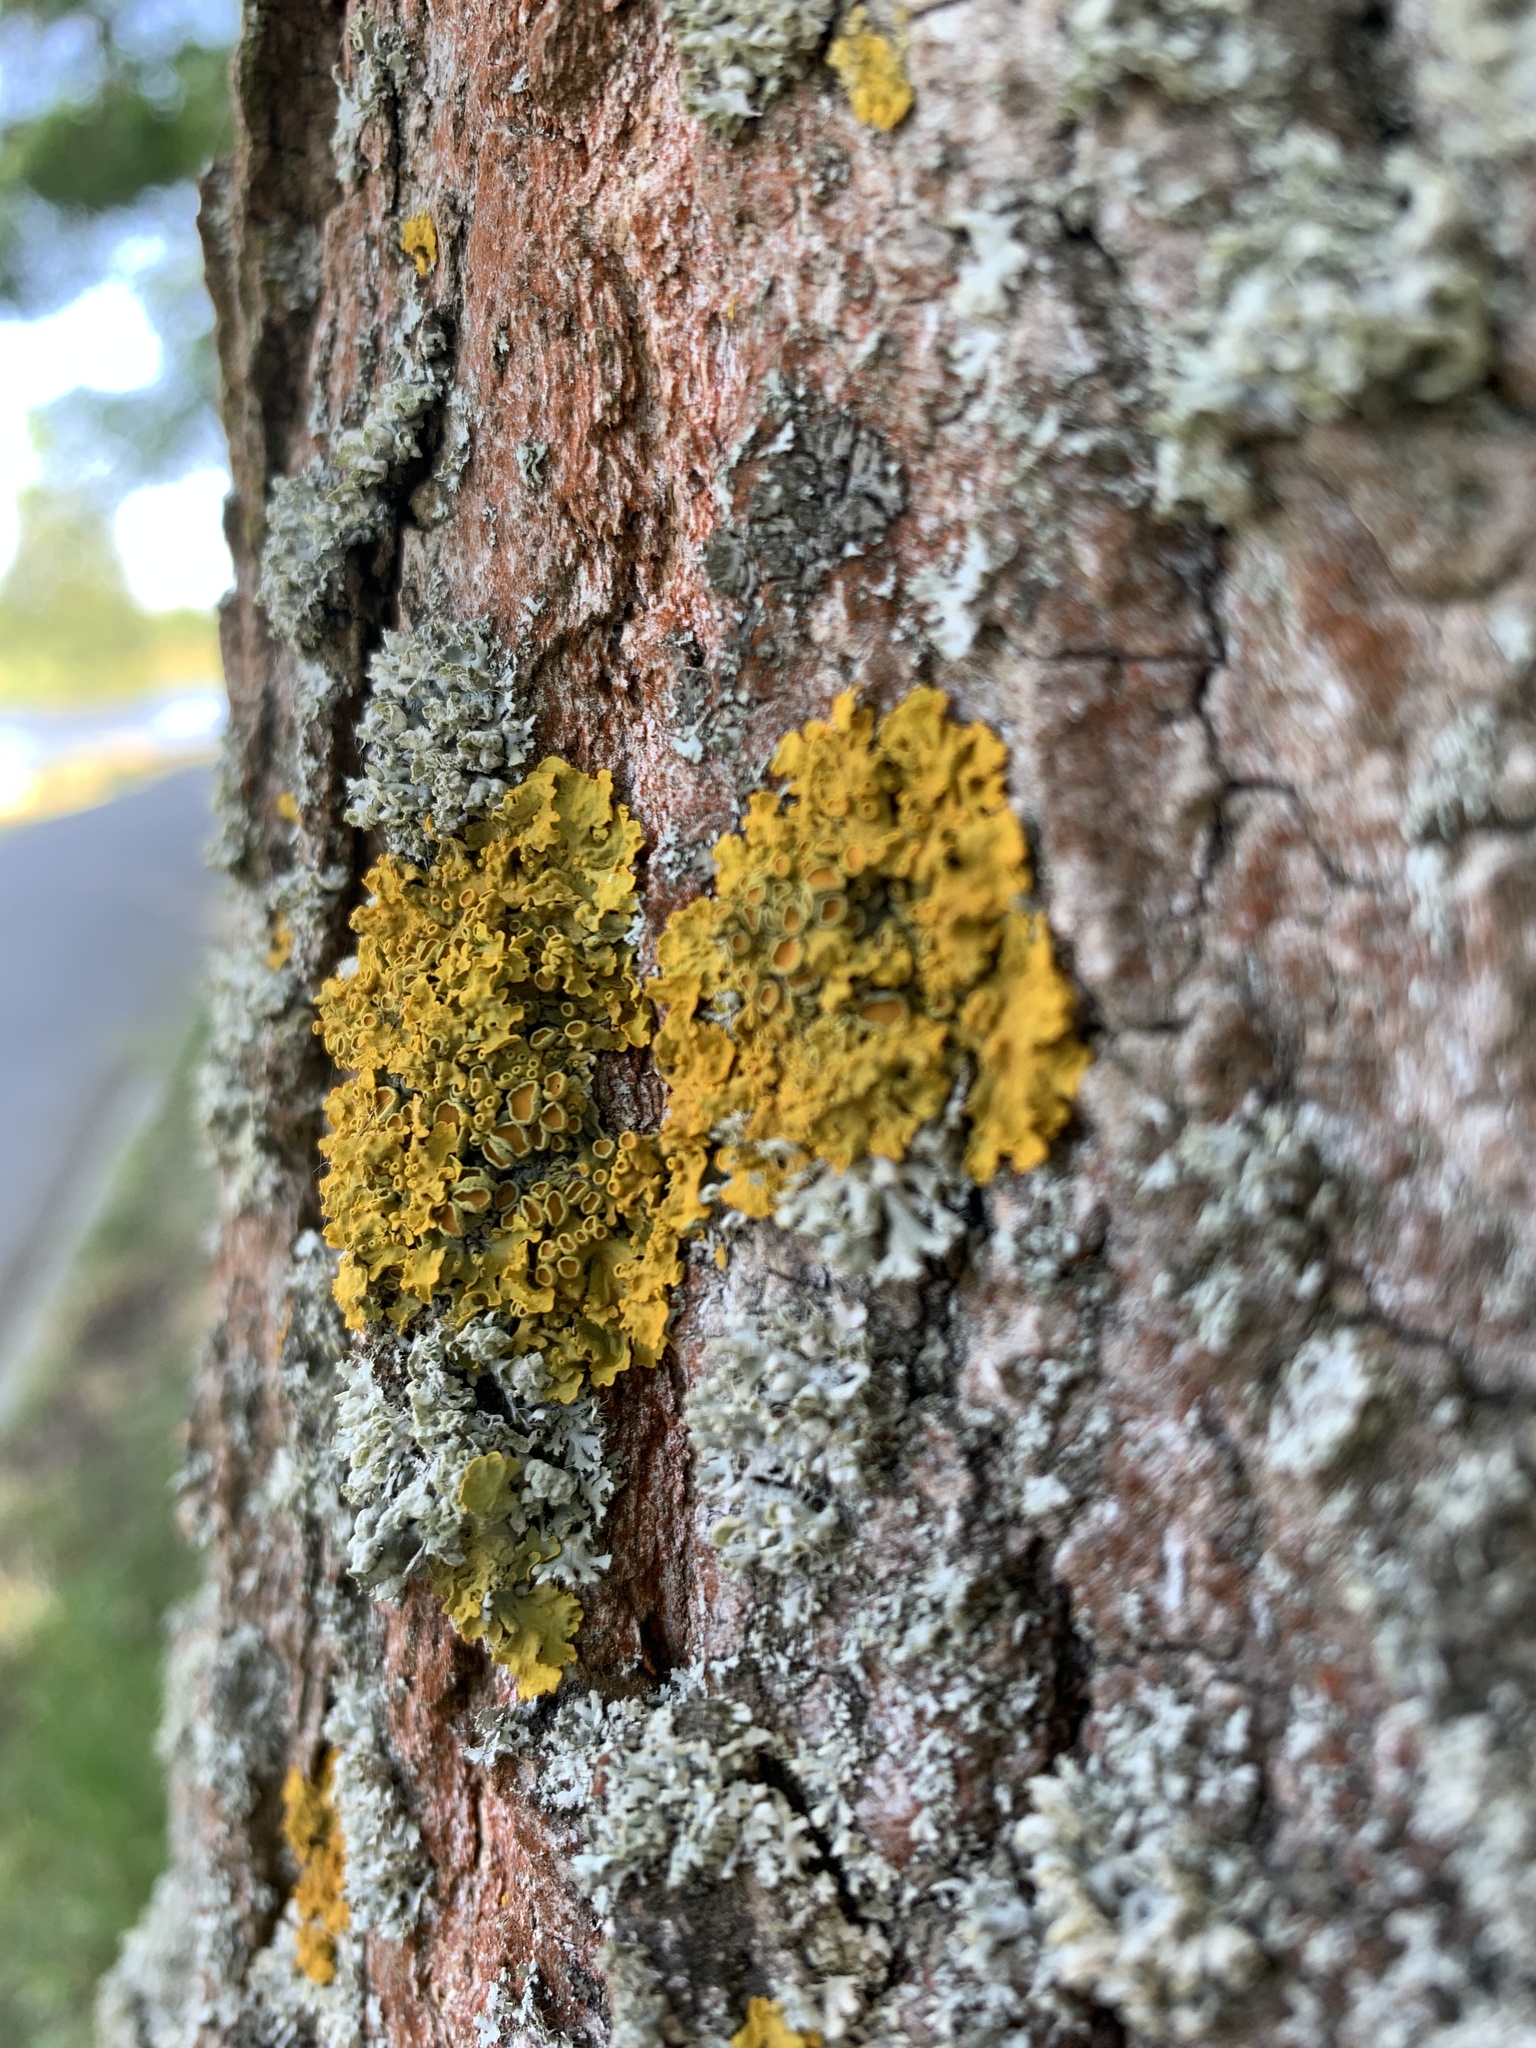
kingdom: Fungi
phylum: Ascomycota
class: Lecanoromycetes
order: Teloschistales
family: Teloschistaceae
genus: Xanthoria
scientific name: Xanthoria parietina
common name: Common orange lichen
